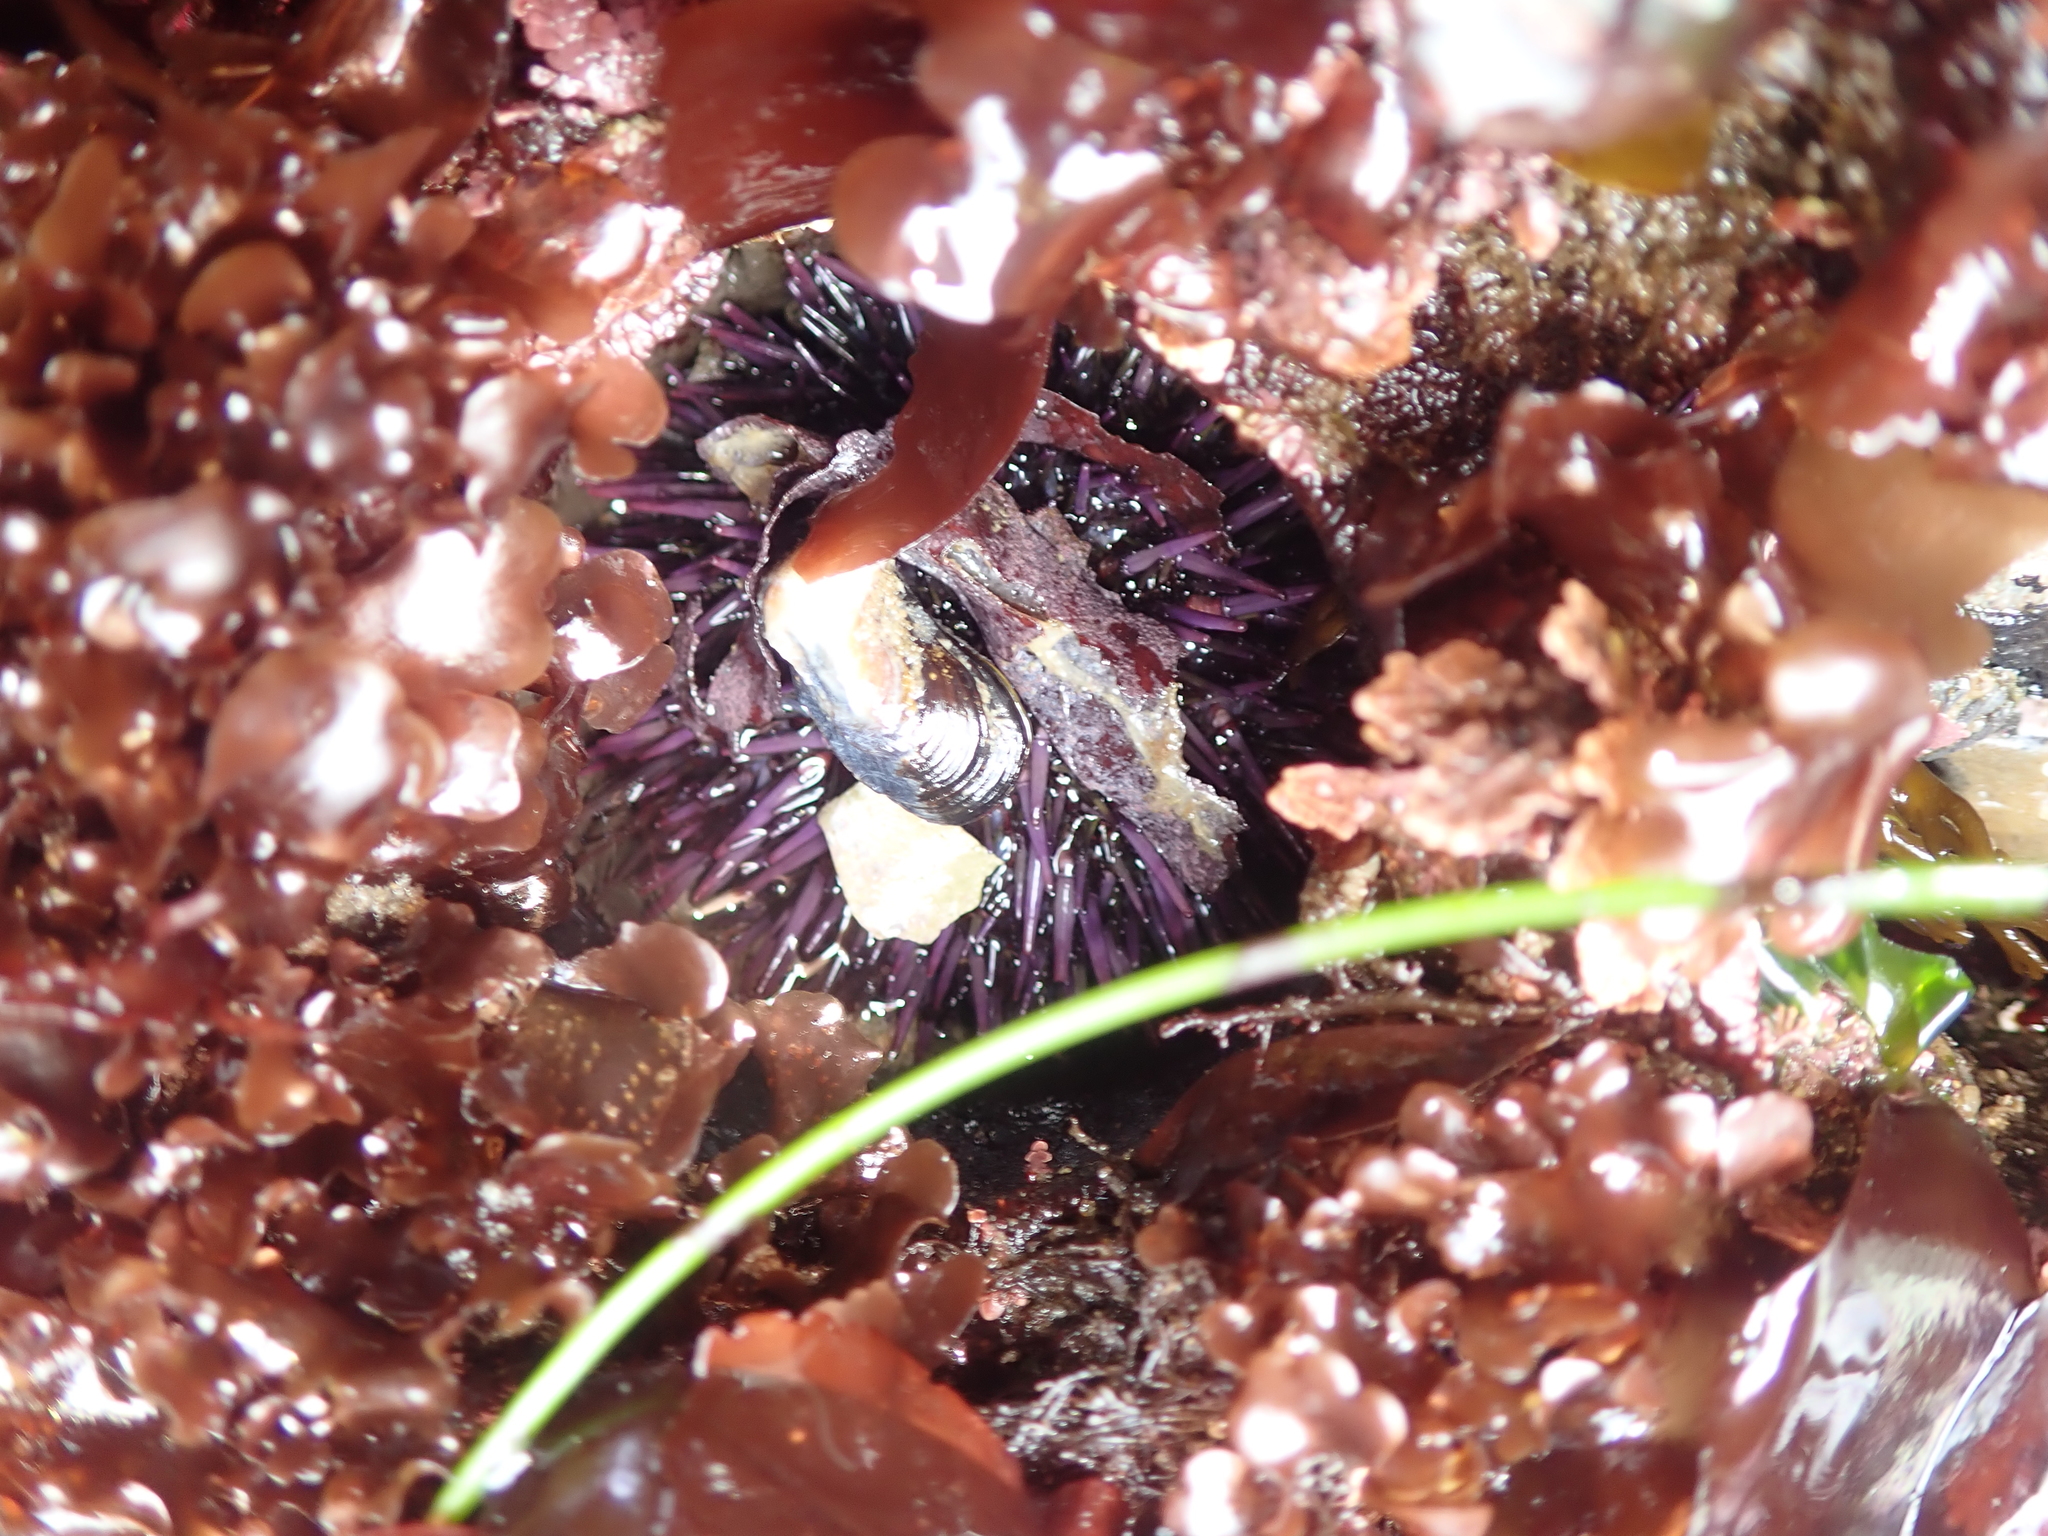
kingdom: Animalia
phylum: Echinodermata
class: Echinoidea
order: Camarodonta
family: Strongylocentrotidae
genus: Strongylocentrotus
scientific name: Strongylocentrotus purpuratus
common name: Purple sea urchin
